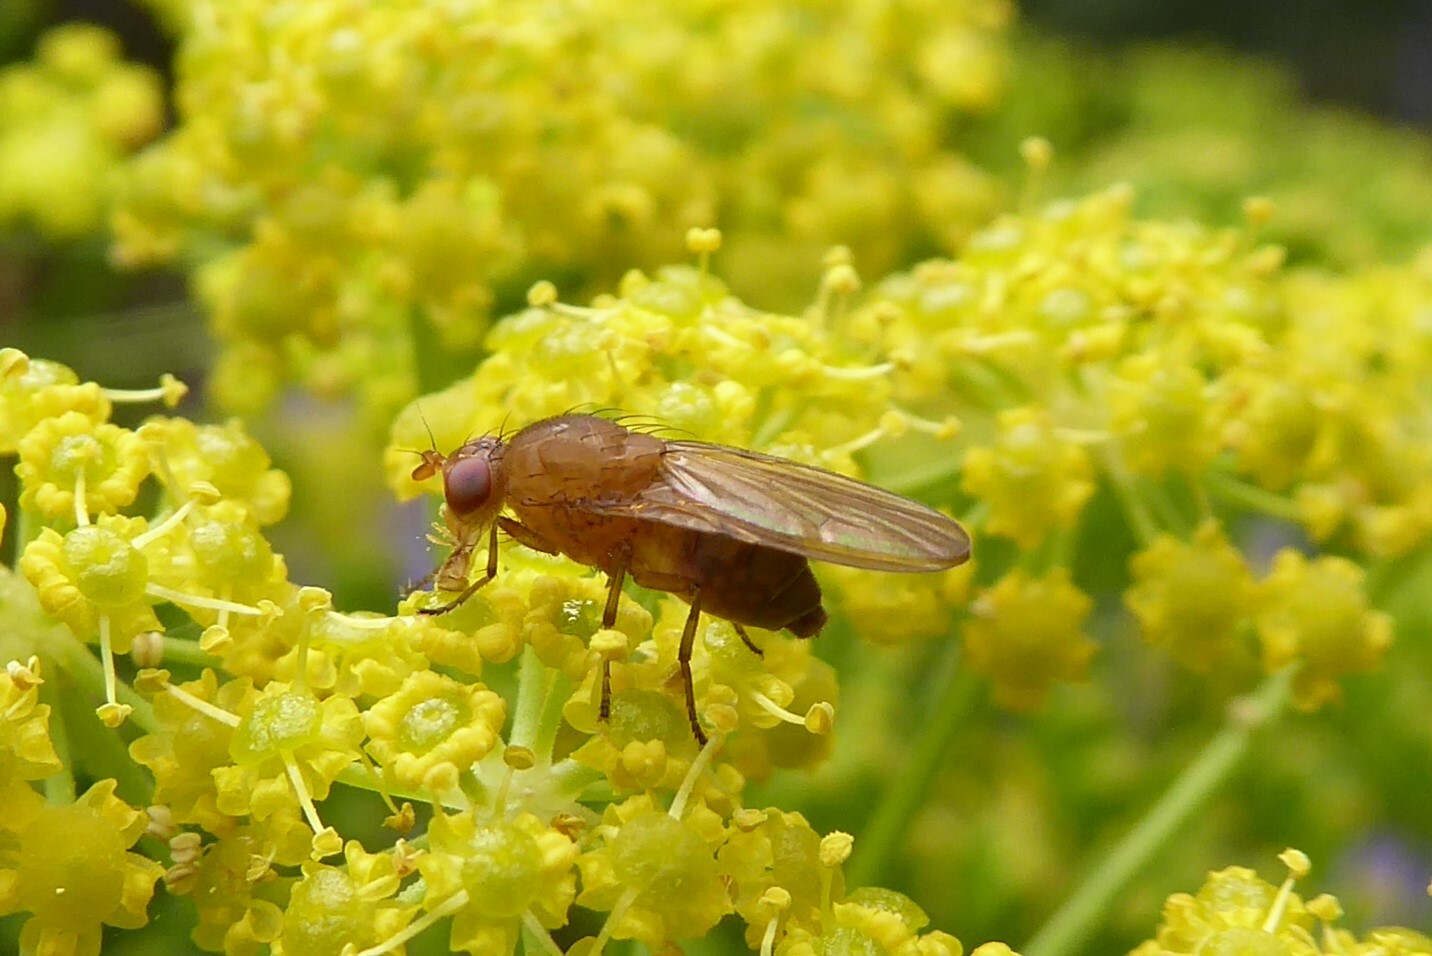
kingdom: Animalia
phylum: Arthropoda
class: Insecta
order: Diptera
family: Lauxaniidae
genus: Sapromyza
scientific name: Sapromyza simillima
